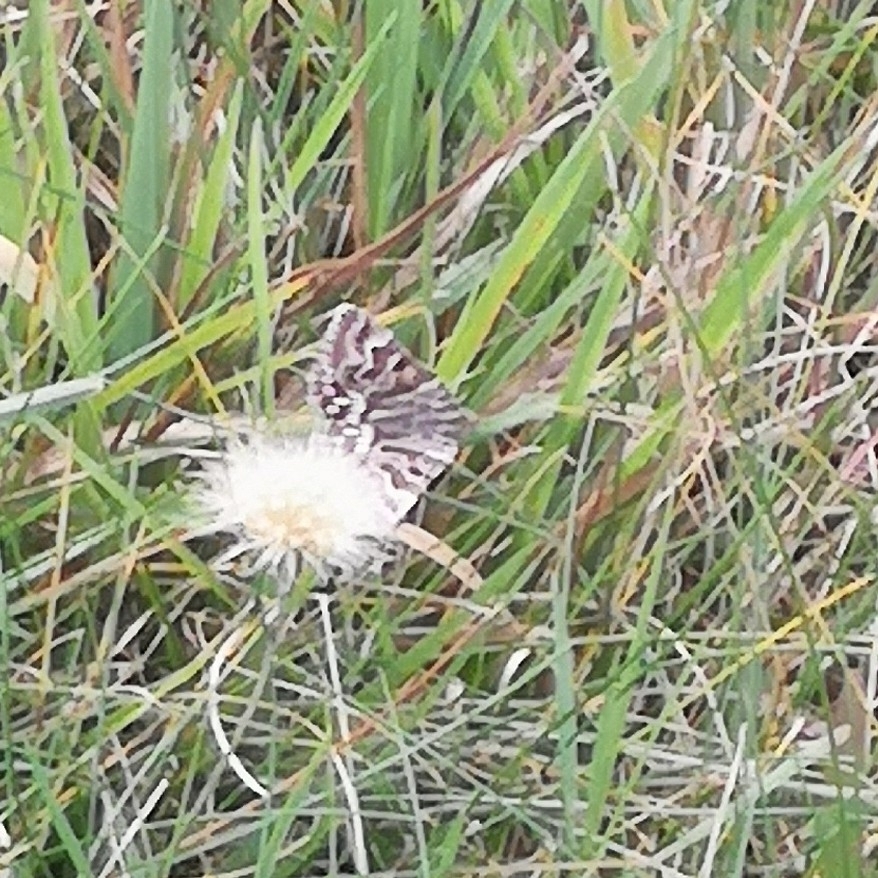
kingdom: Animalia
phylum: Arthropoda
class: Insecta
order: Lepidoptera
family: Erebidae
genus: Callistege
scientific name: Callistege mi
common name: Mother shipton
